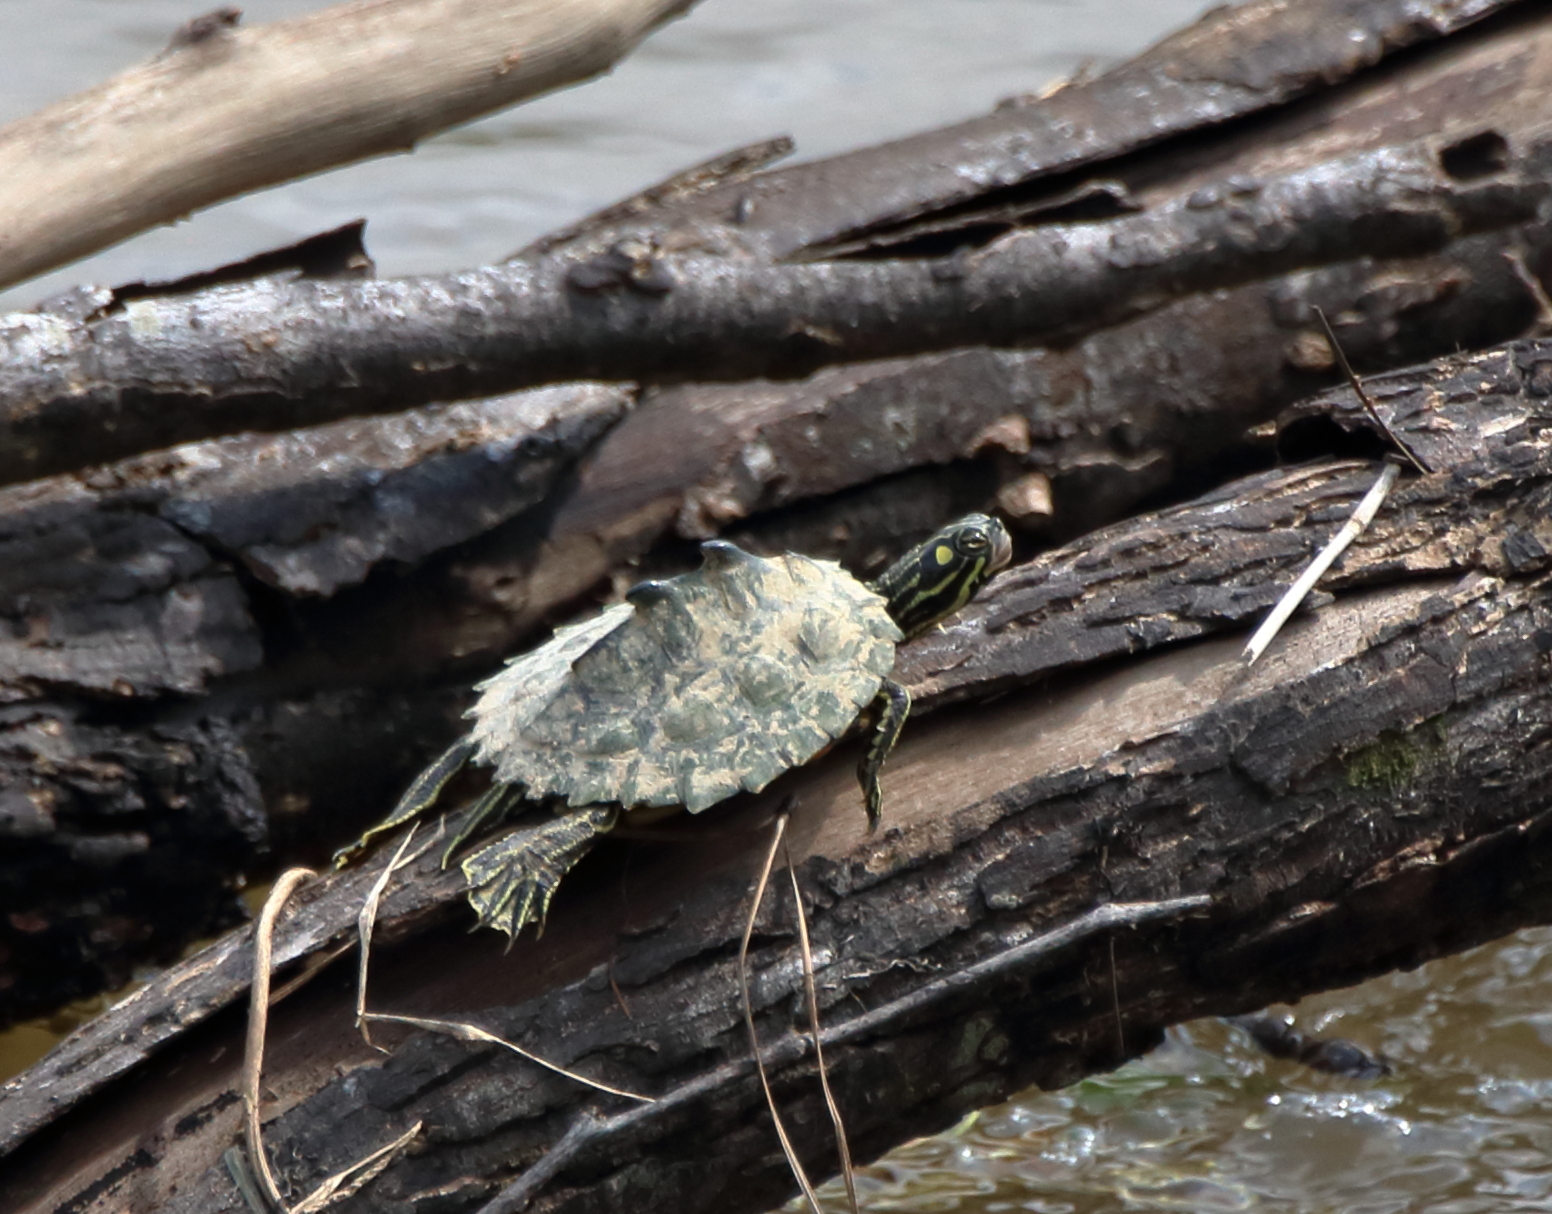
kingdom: Animalia
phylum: Chordata
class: Testudines
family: Emydidae
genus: Graptemys
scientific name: Graptemys oculifera
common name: Ringed map turtle
